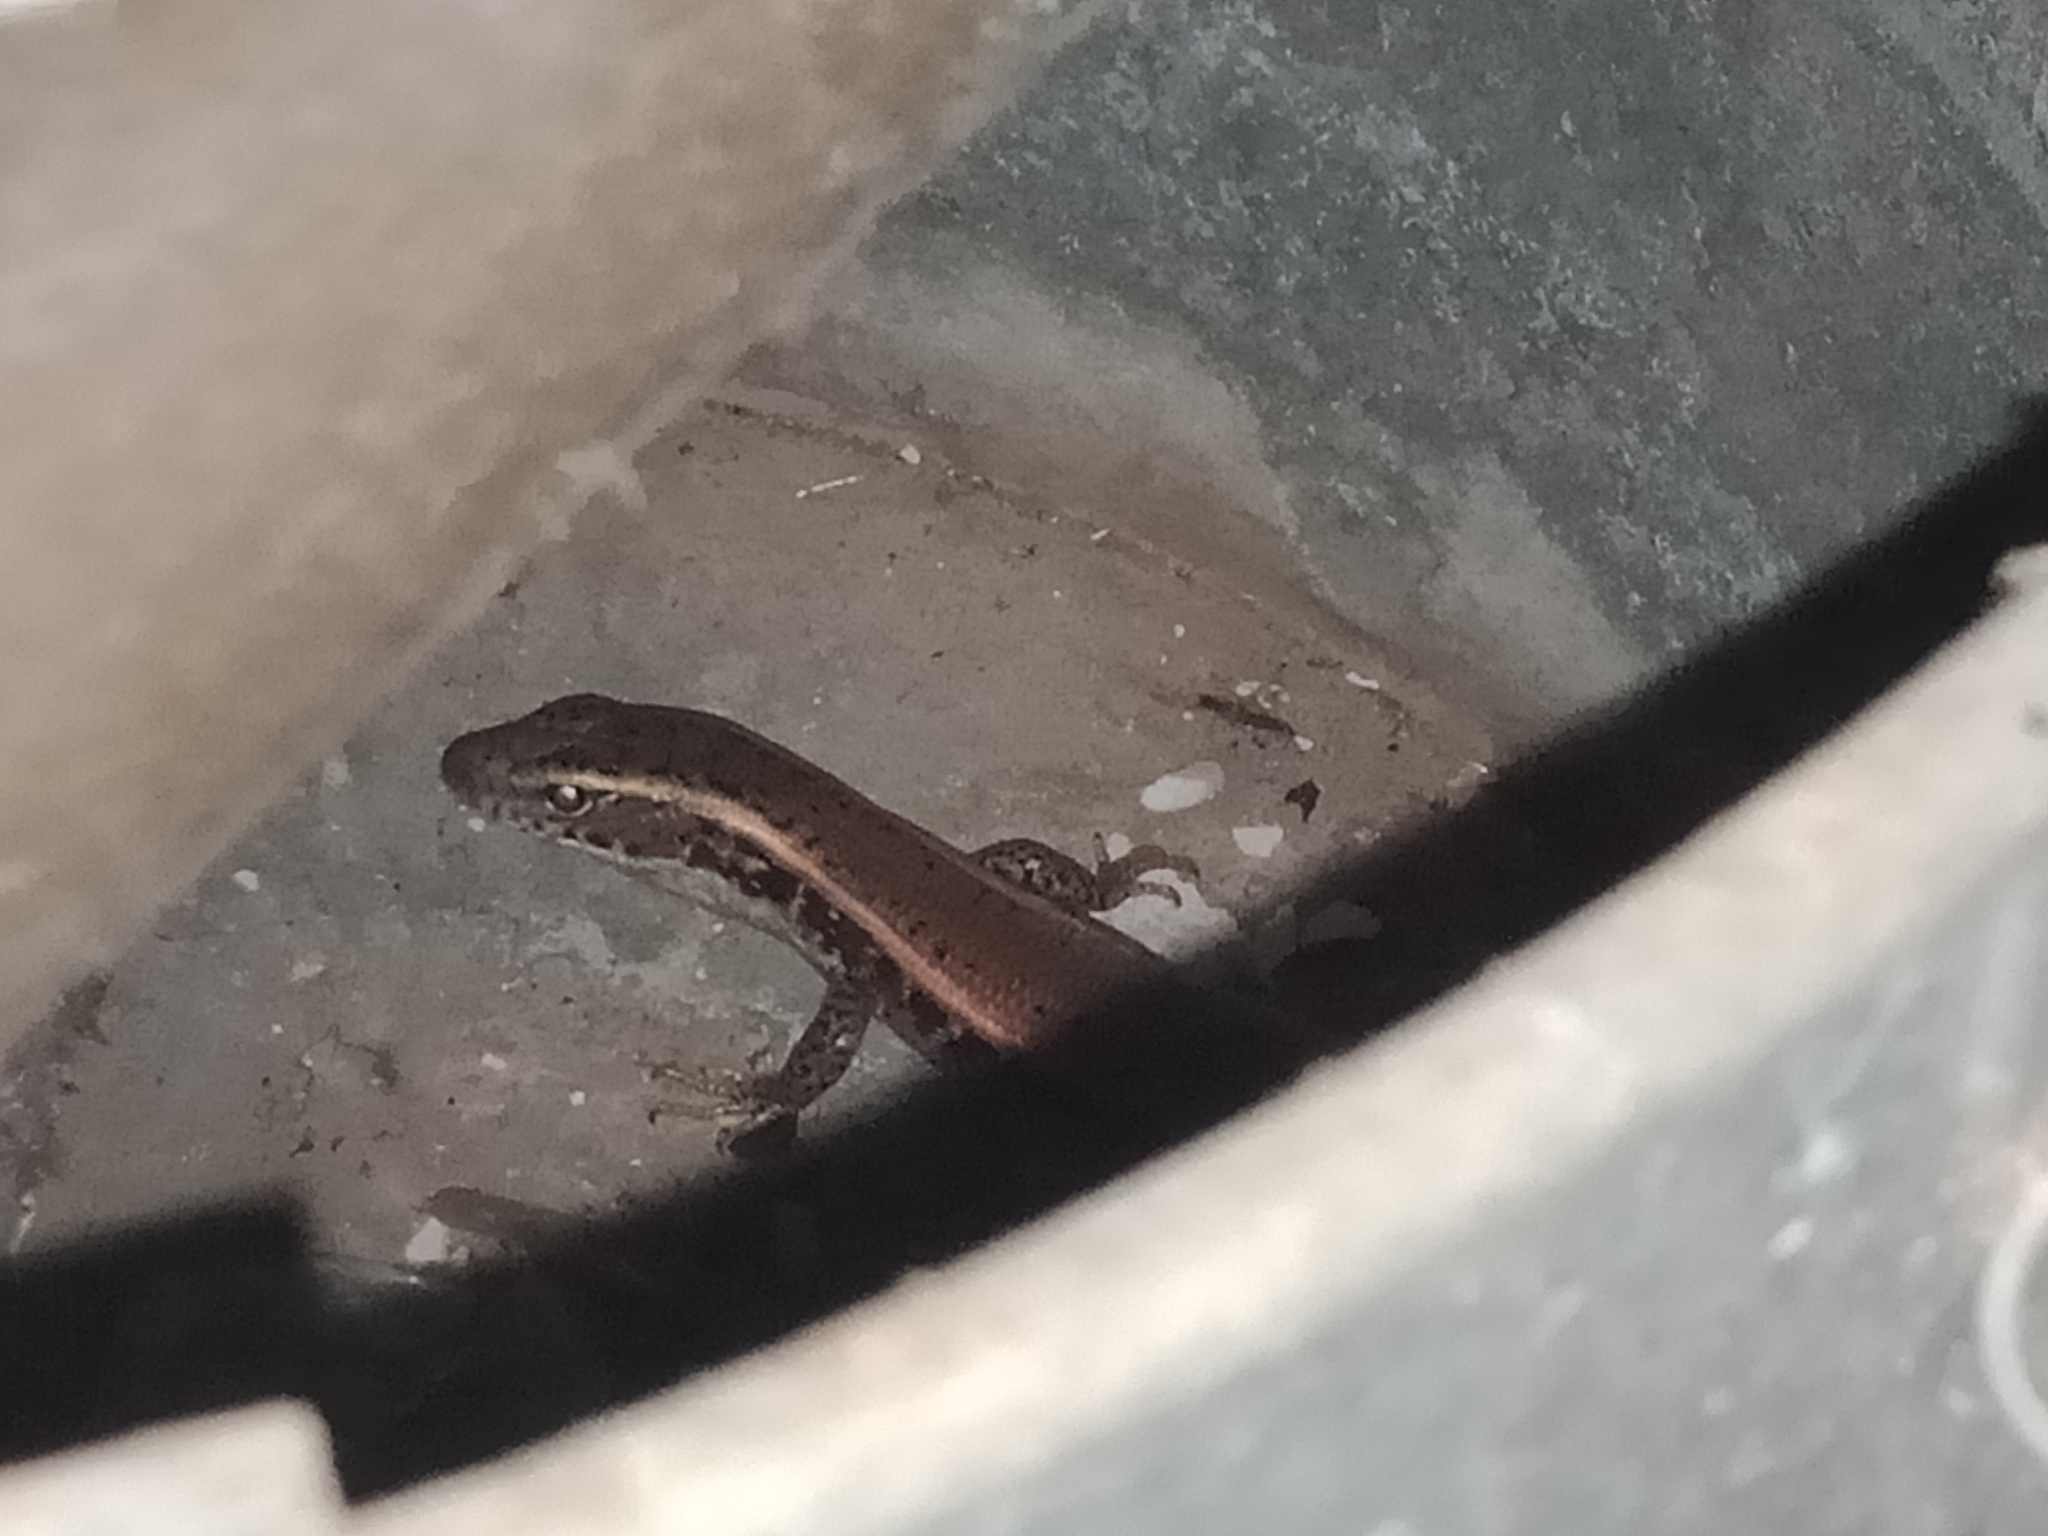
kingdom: Animalia
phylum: Chordata
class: Squamata
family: Scincidae
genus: Eulamprus
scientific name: Eulamprus quoyii
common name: Eastern water skink
